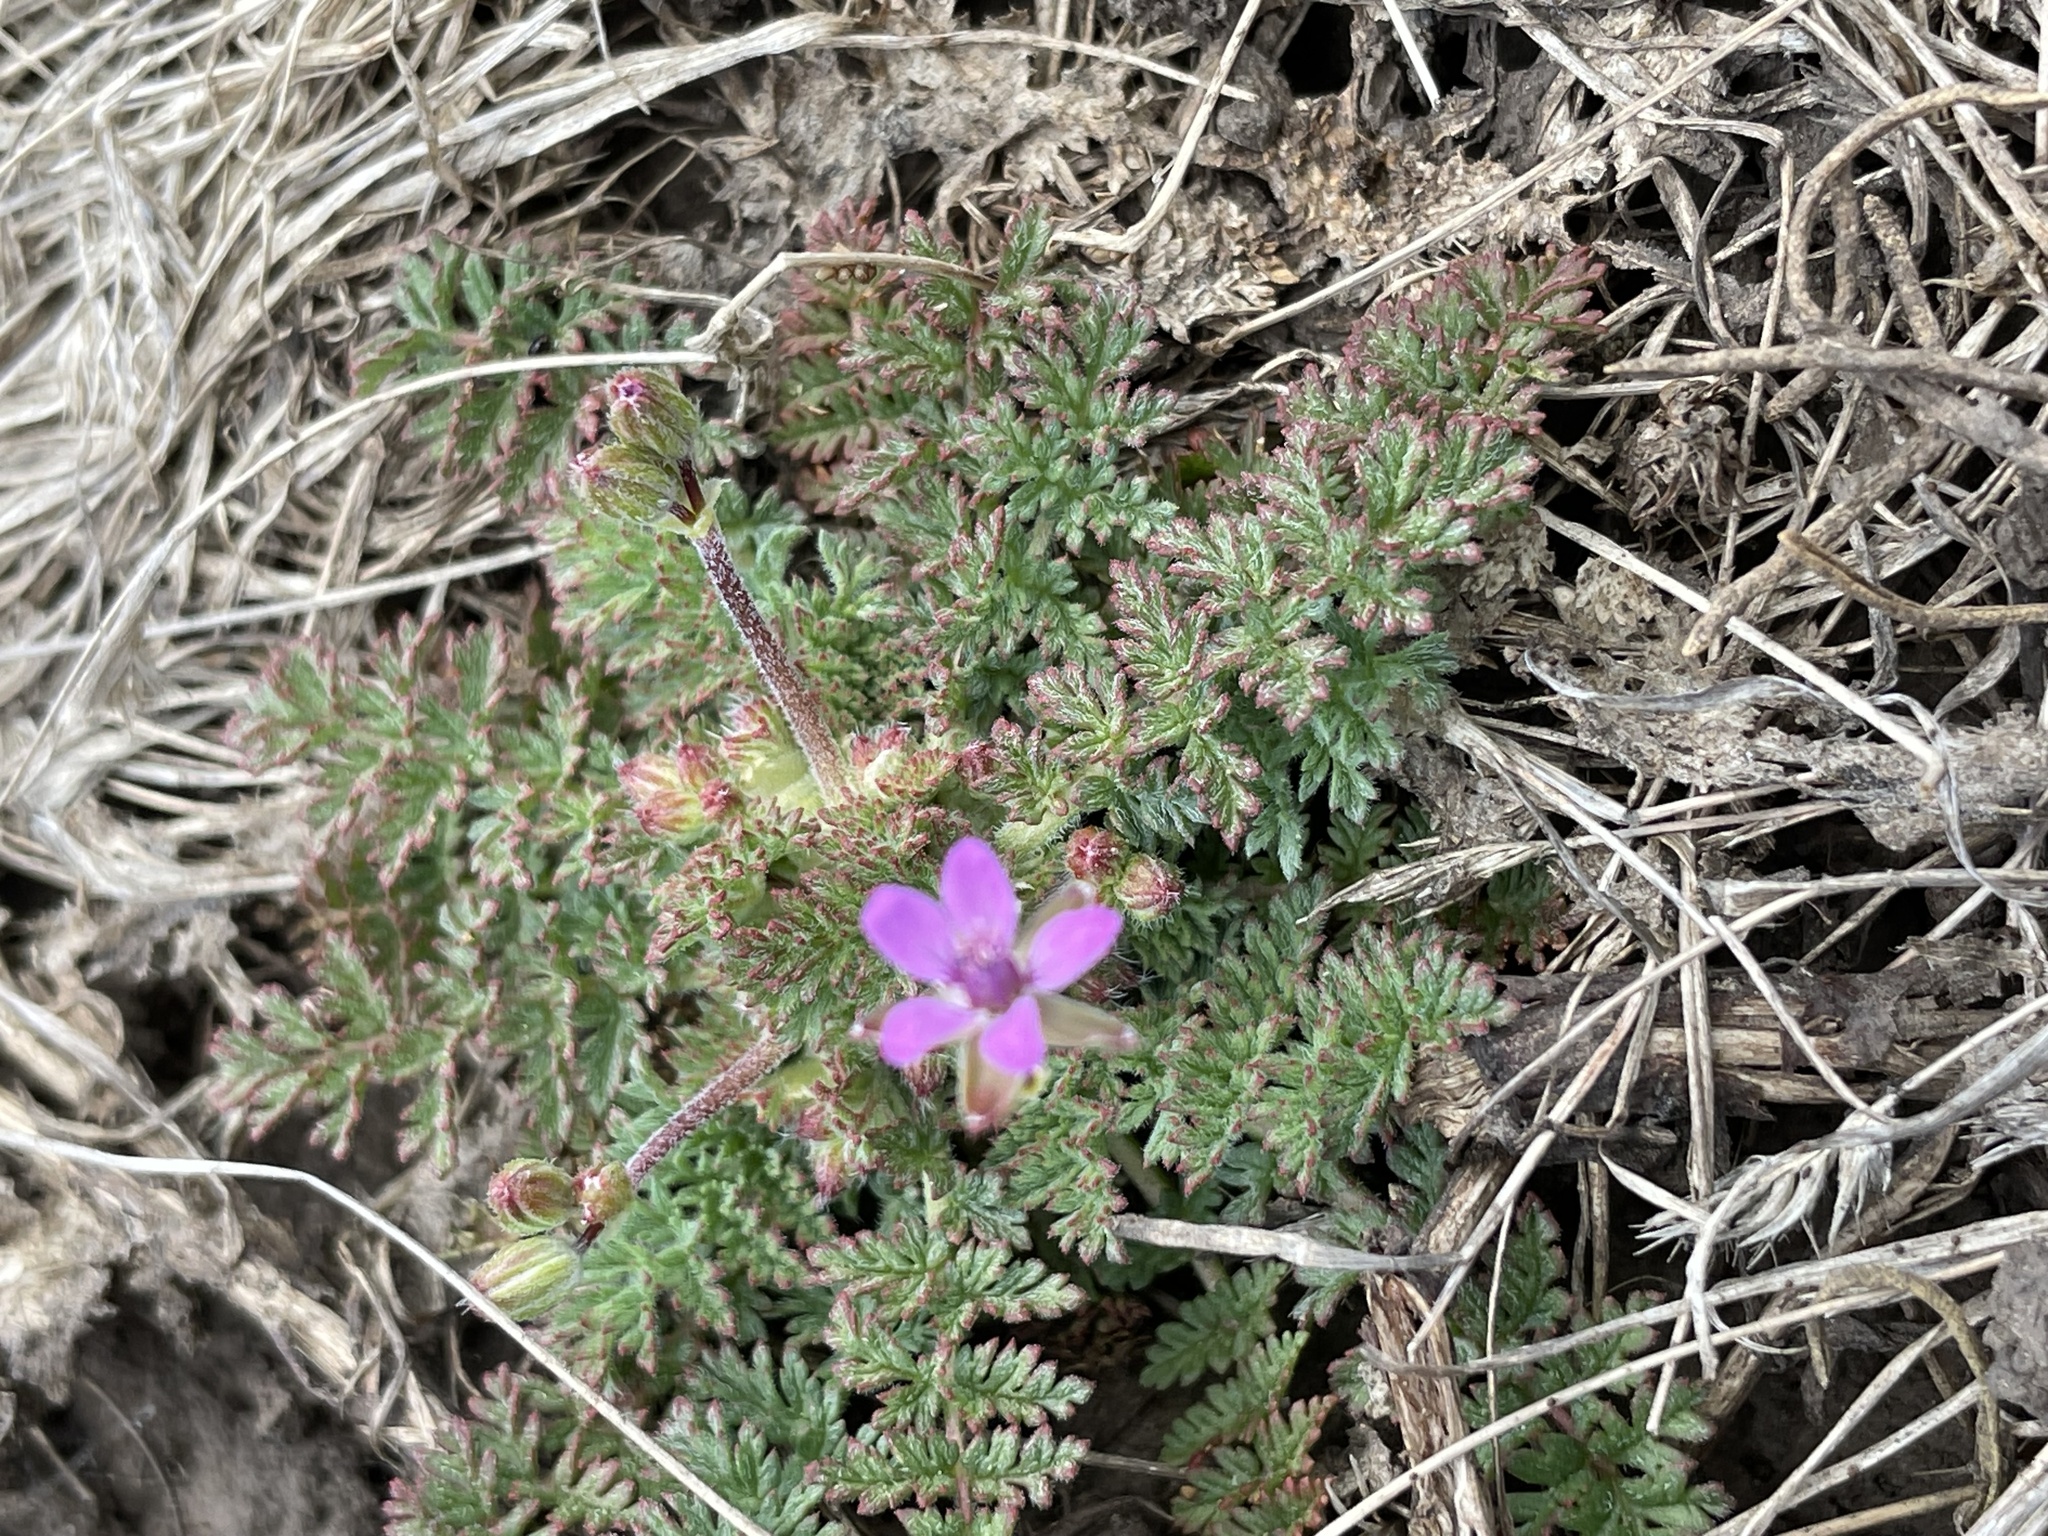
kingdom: Plantae
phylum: Tracheophyta
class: Magnoliopsida
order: Geraniales
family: Geraniaceae
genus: Erodium
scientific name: Erodium cicutarium
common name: Common stork's-bill
